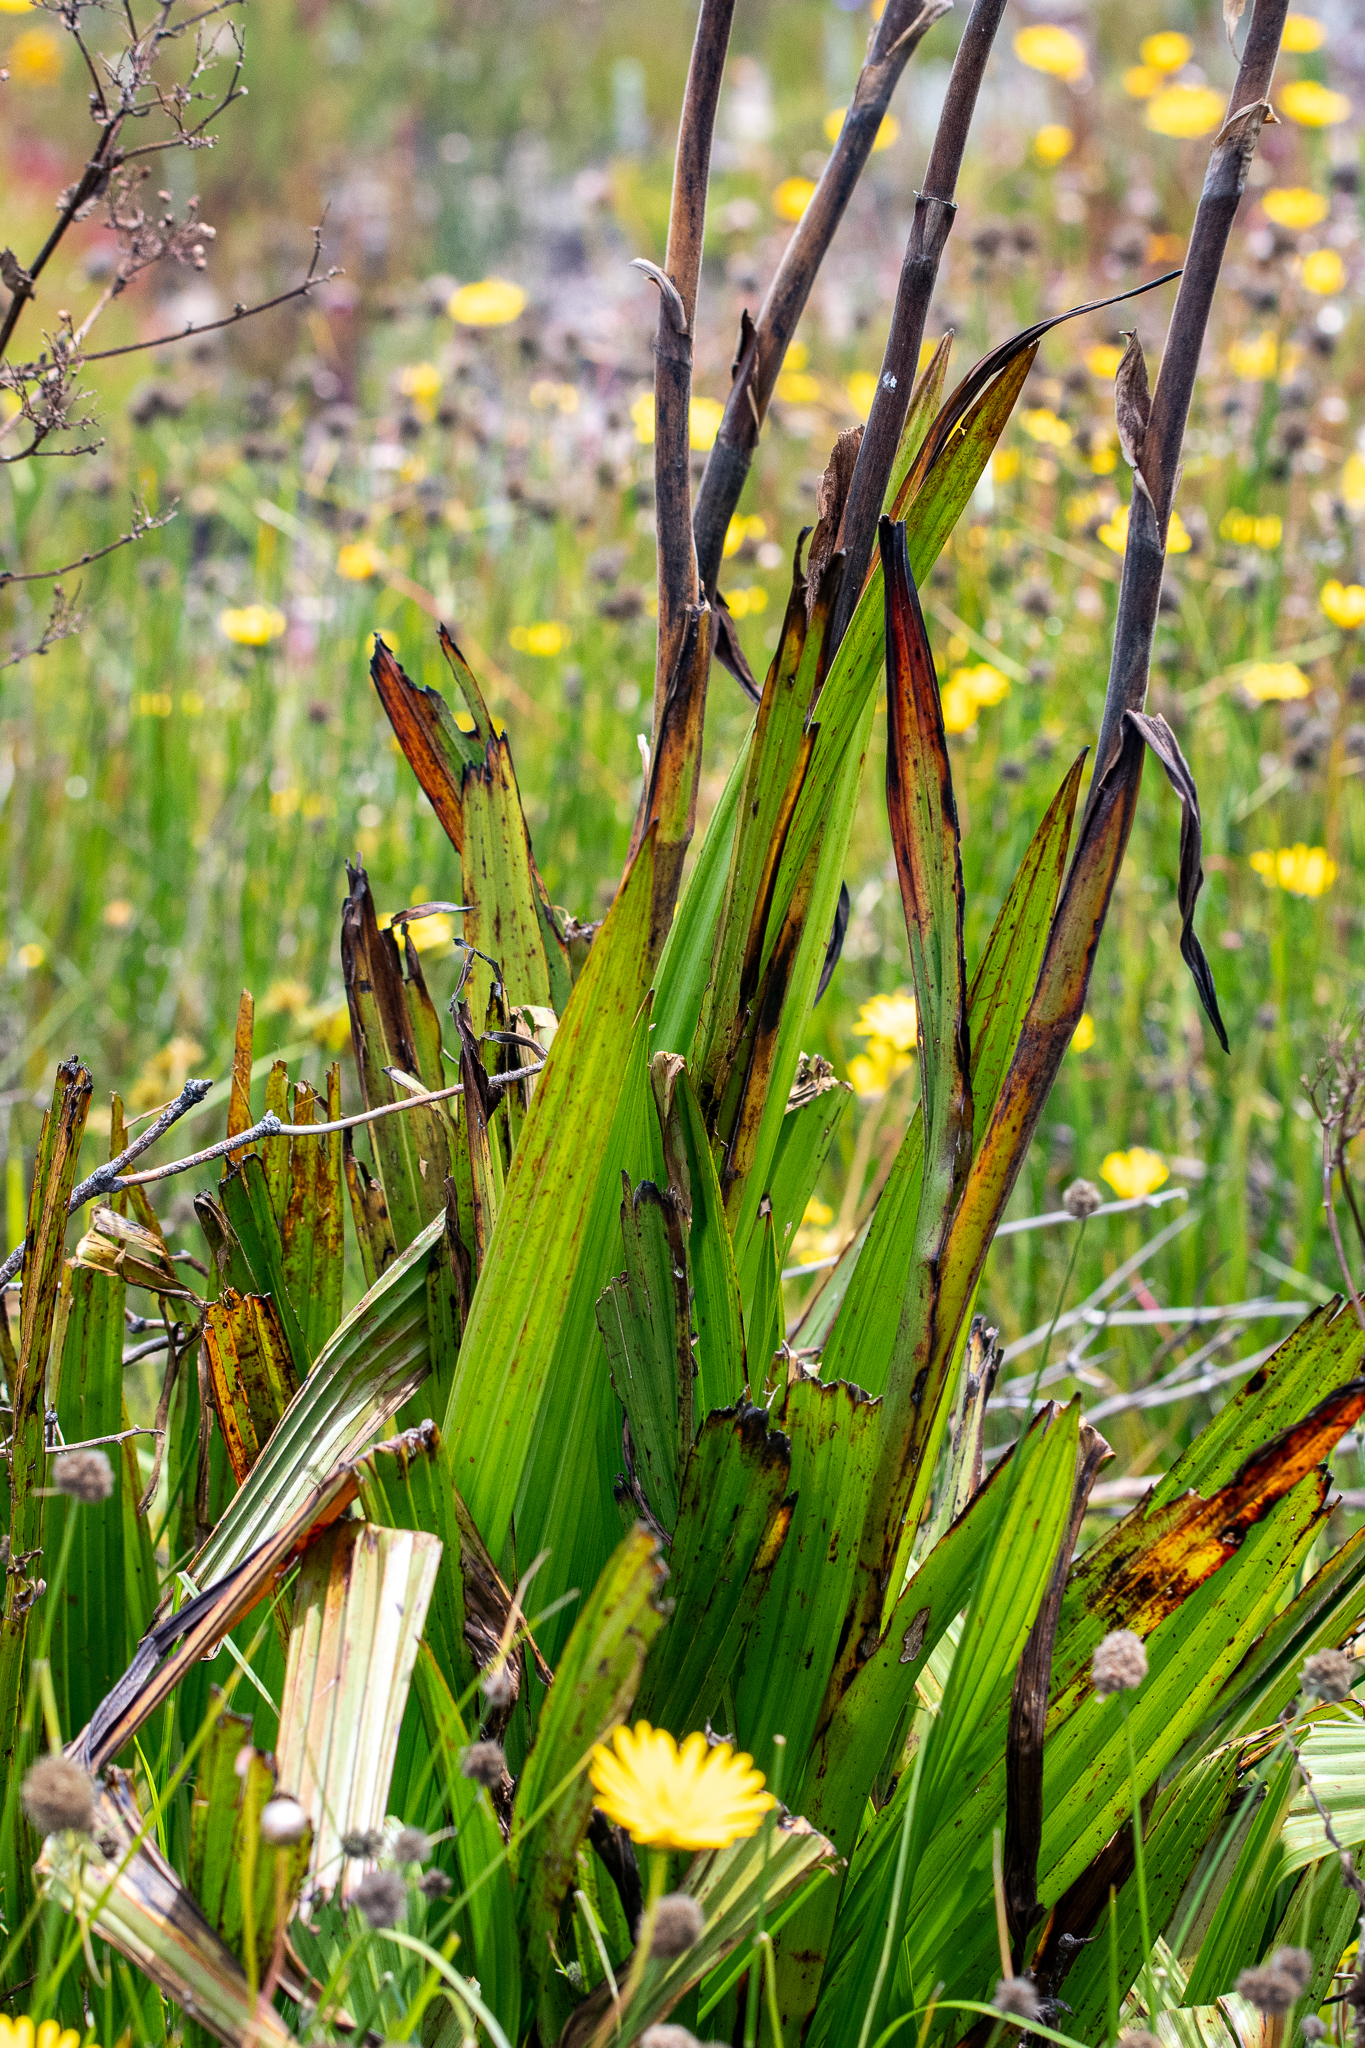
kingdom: Plantae
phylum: Tracheophyta
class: Liliopsida
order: Commelinales
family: Haemodoraceae
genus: Wachendorfia
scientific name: Wachendorfia thyrsiflora
